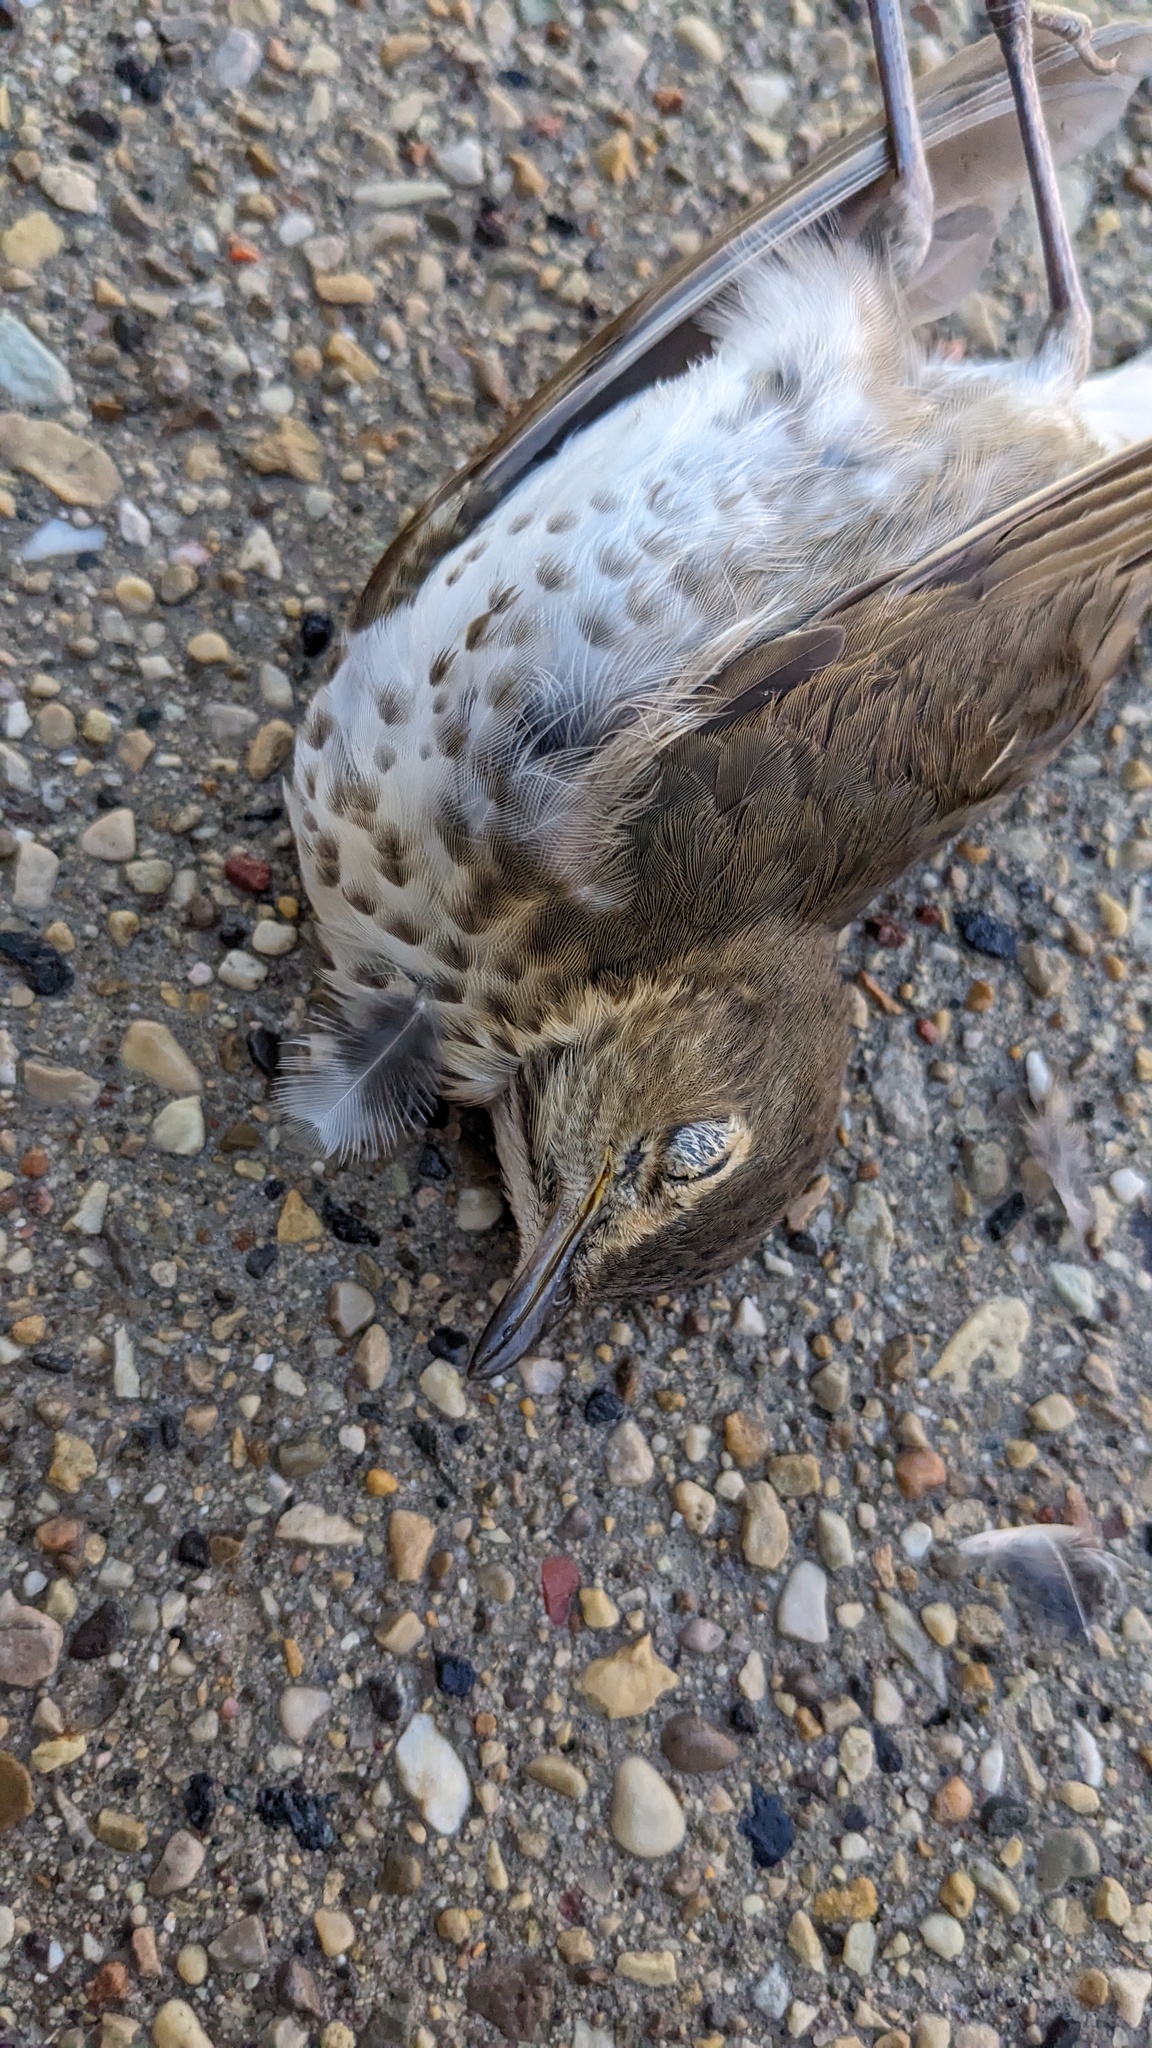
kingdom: Animalia
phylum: Chordata
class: Aves
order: Passeriformes
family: Turdidae
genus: Catharus
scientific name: Catharus ustulatus
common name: Swainson's thrush
